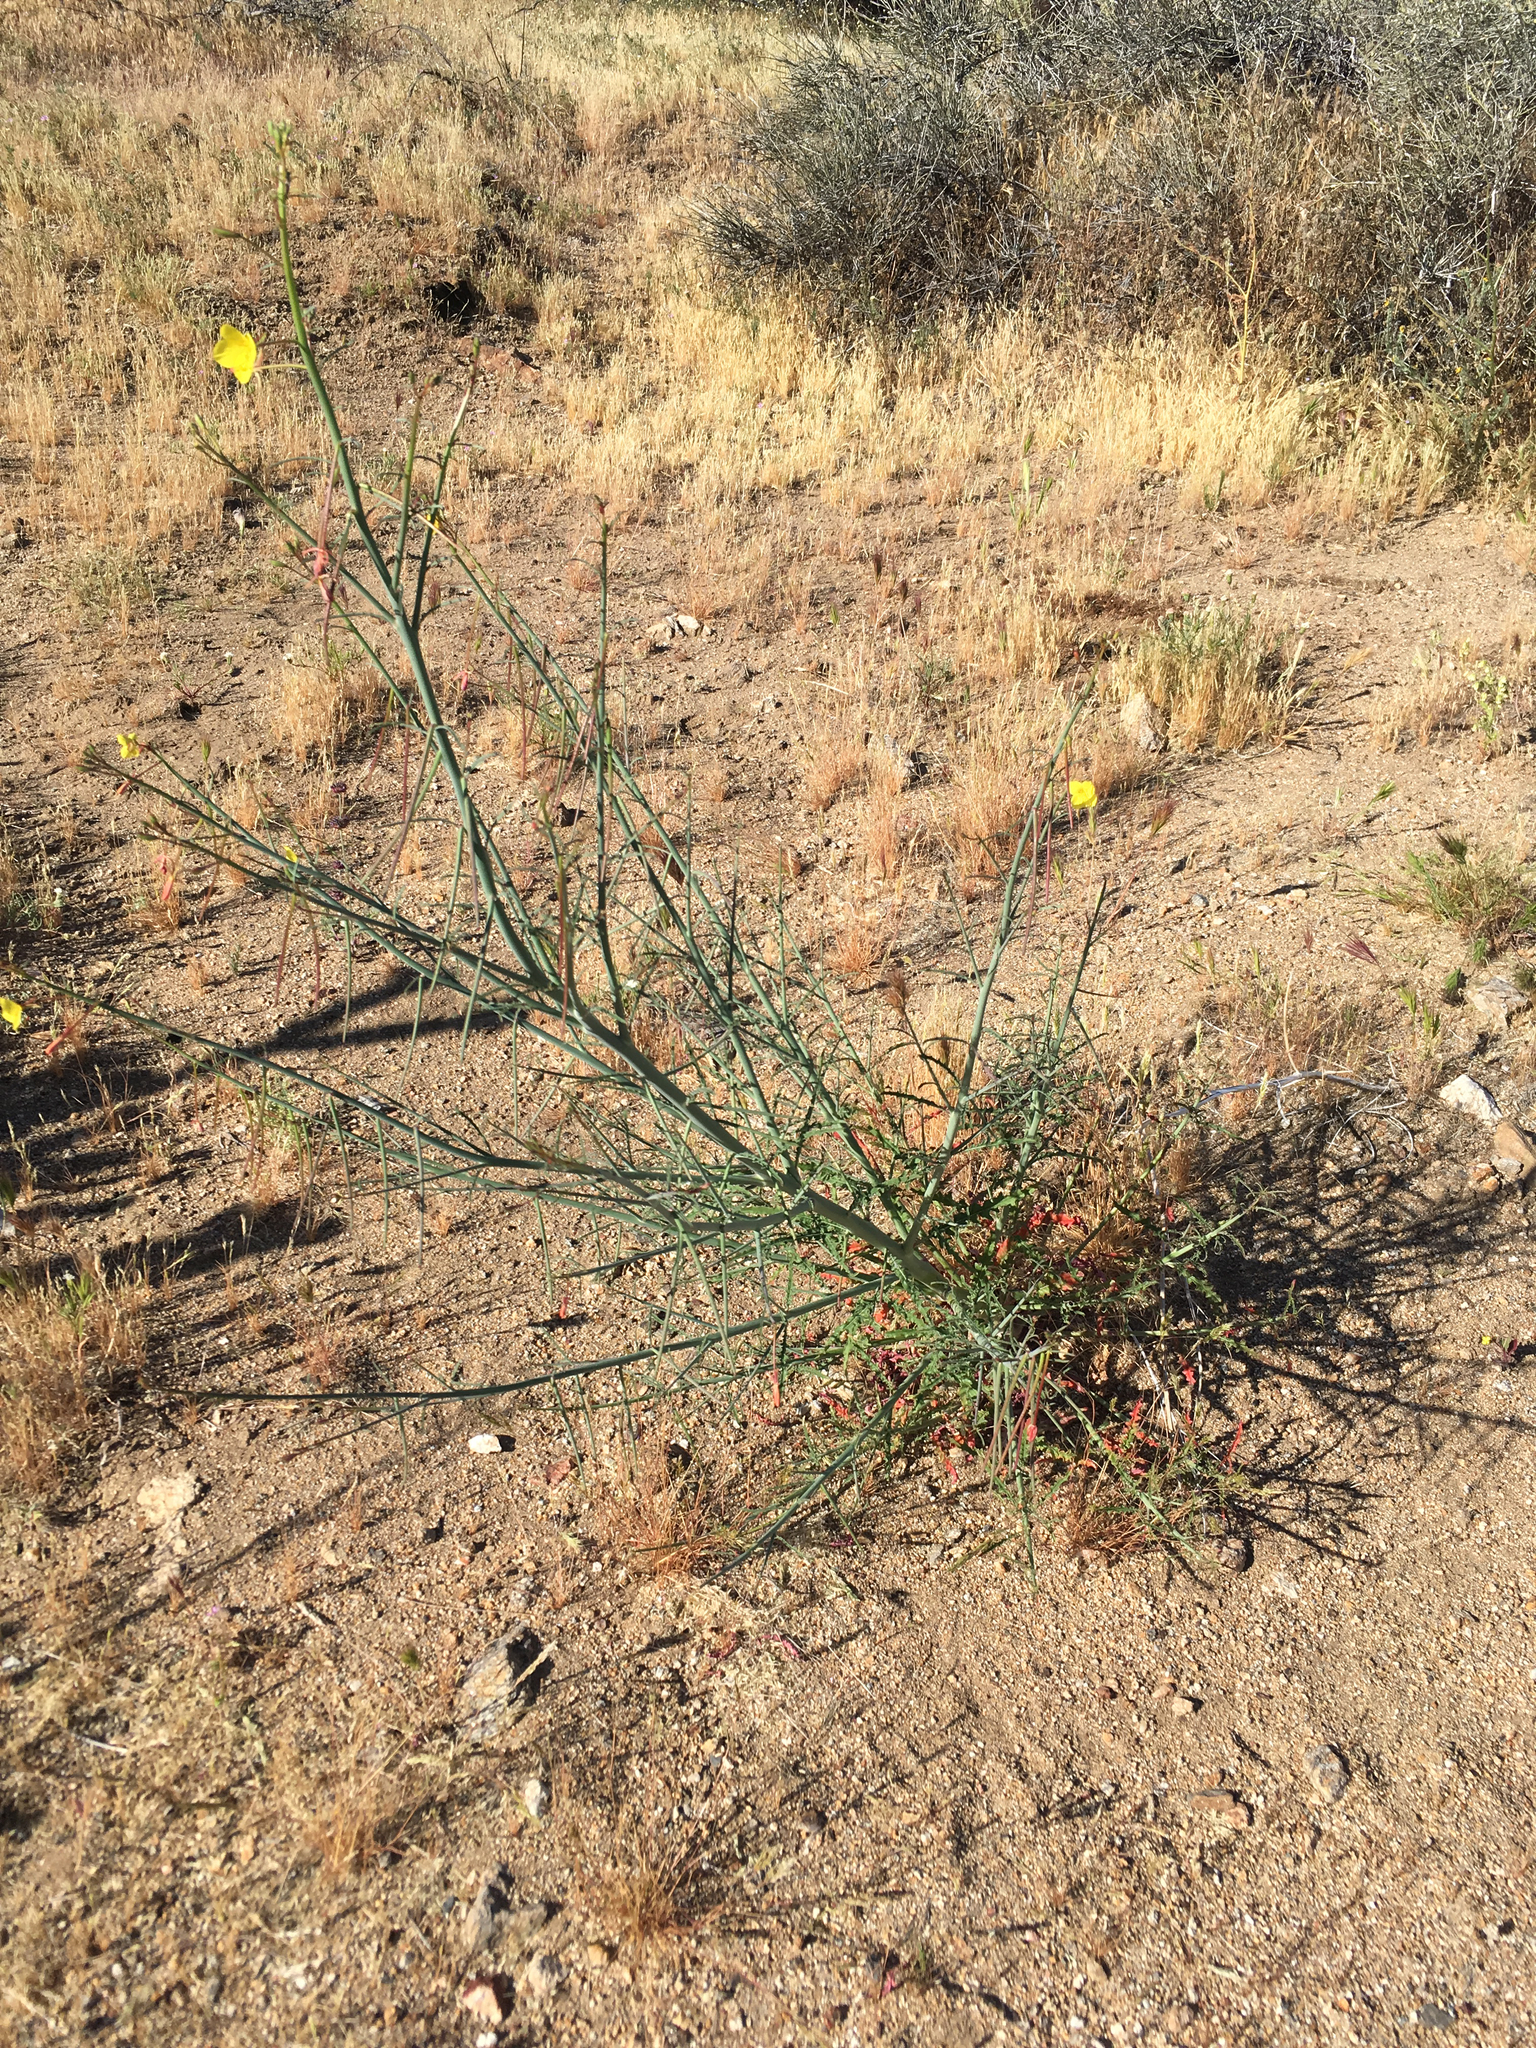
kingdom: Plantae
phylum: Tracheophyta
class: Magnoliopsida
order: Myrtales
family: Onagraceae
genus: Eulobus
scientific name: Eulobus californicus
